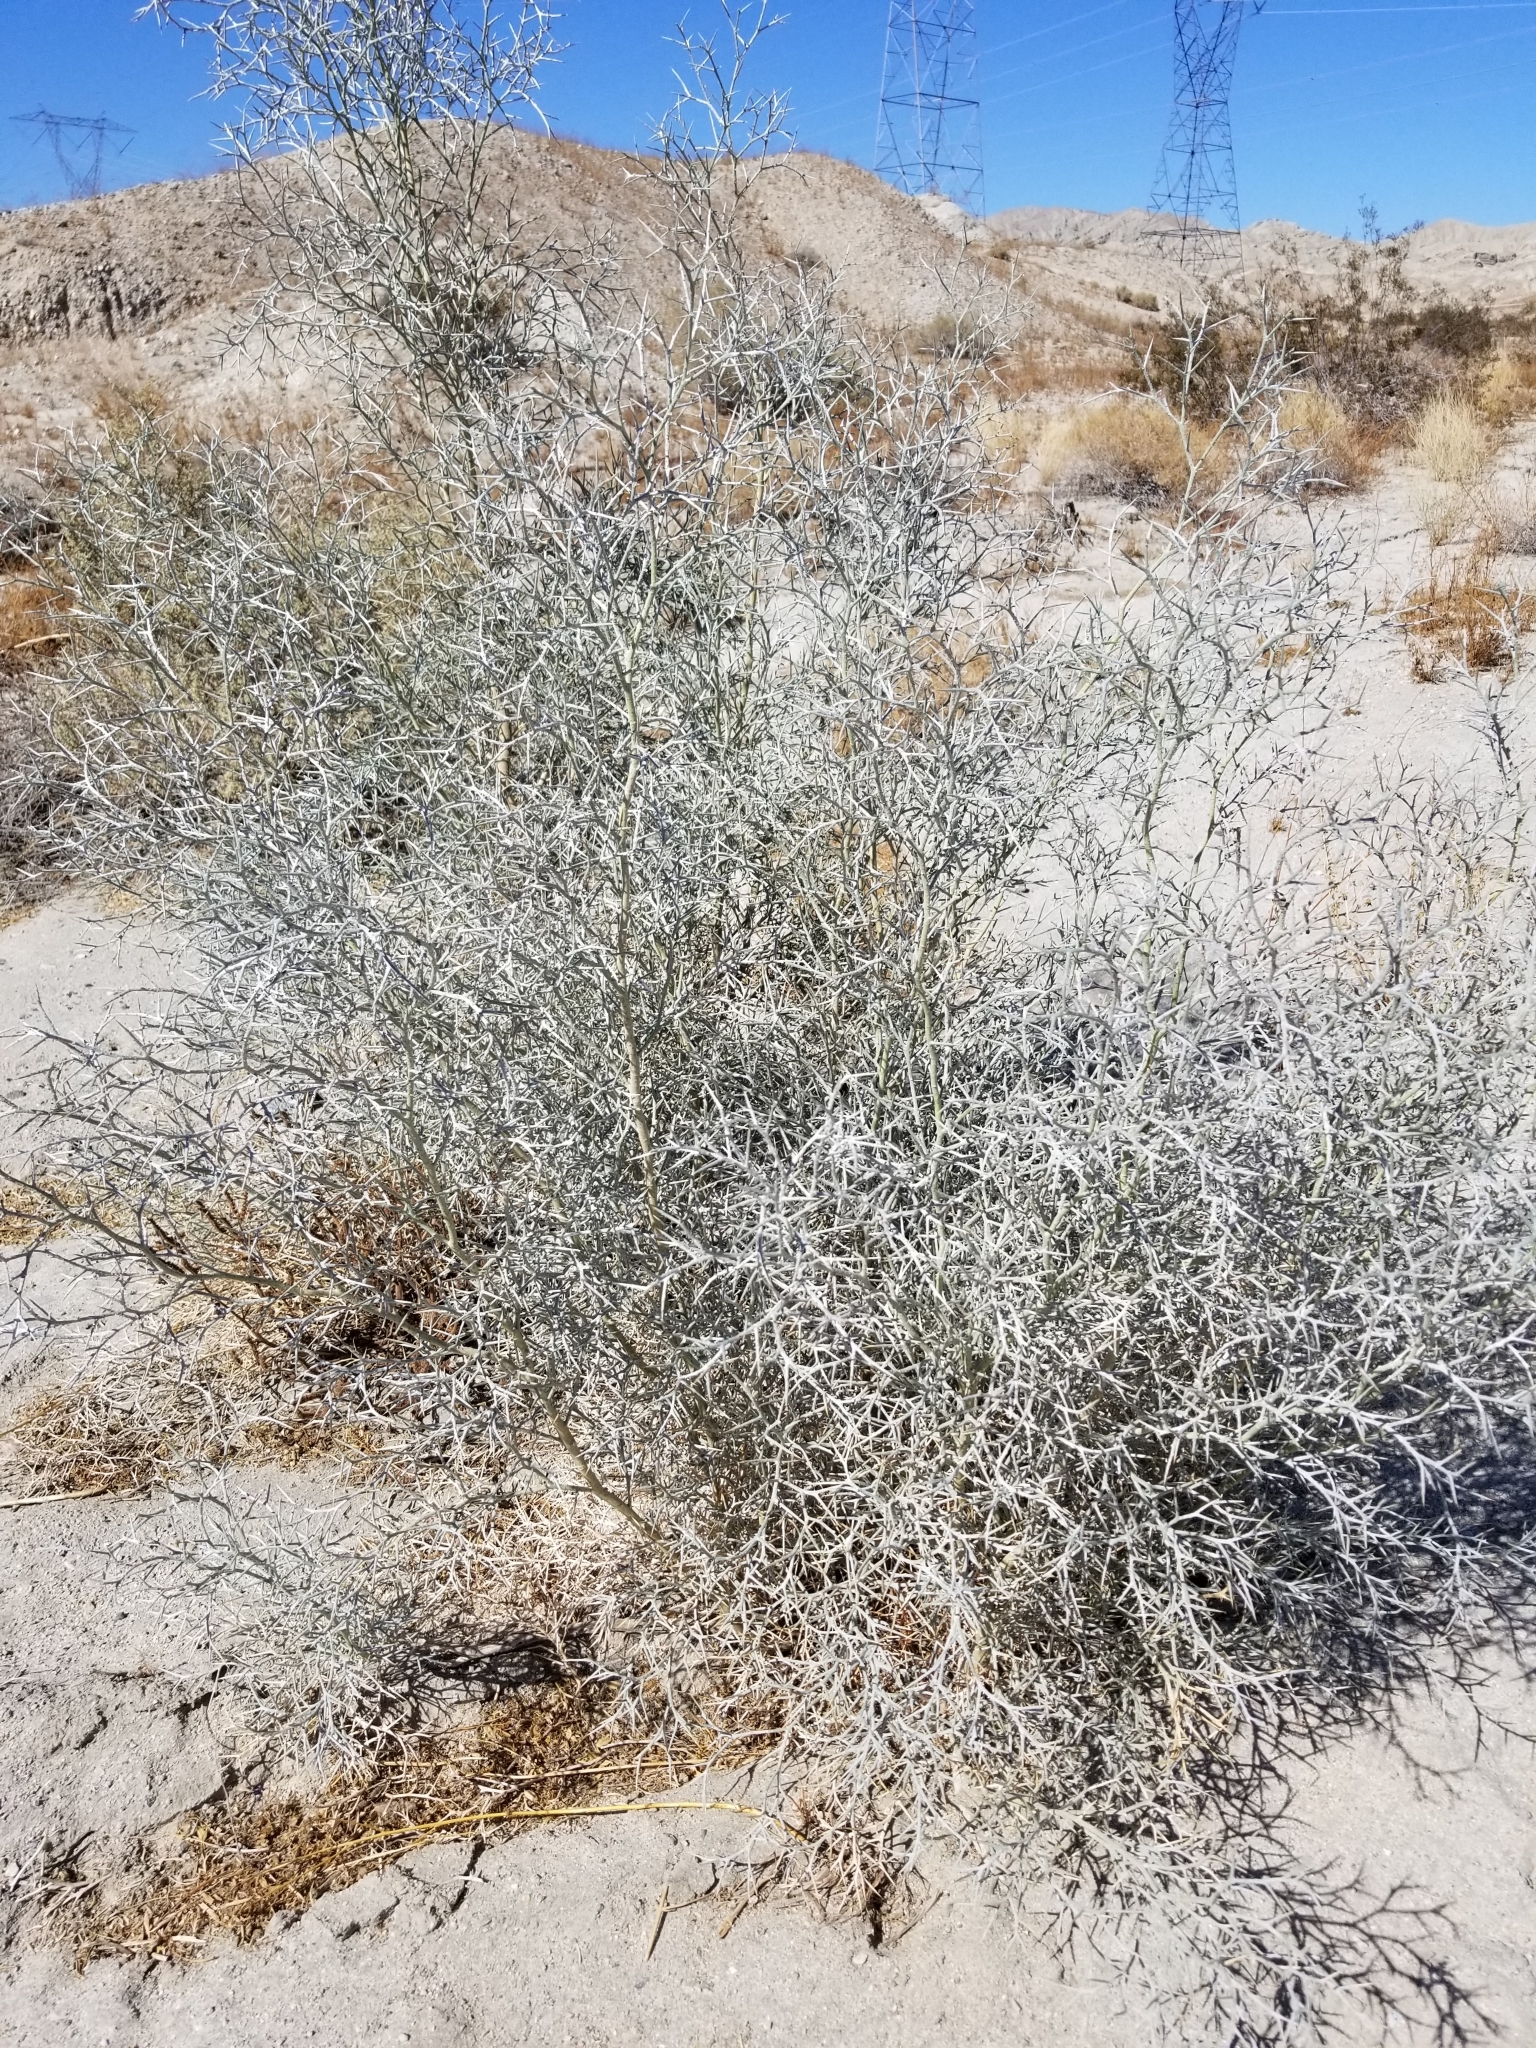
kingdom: Plantae
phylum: Tracheophyta
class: Magnoliopsida
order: Fabales
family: Fabaceae
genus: Psorothamnus
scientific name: Psorothamnus spinosus
